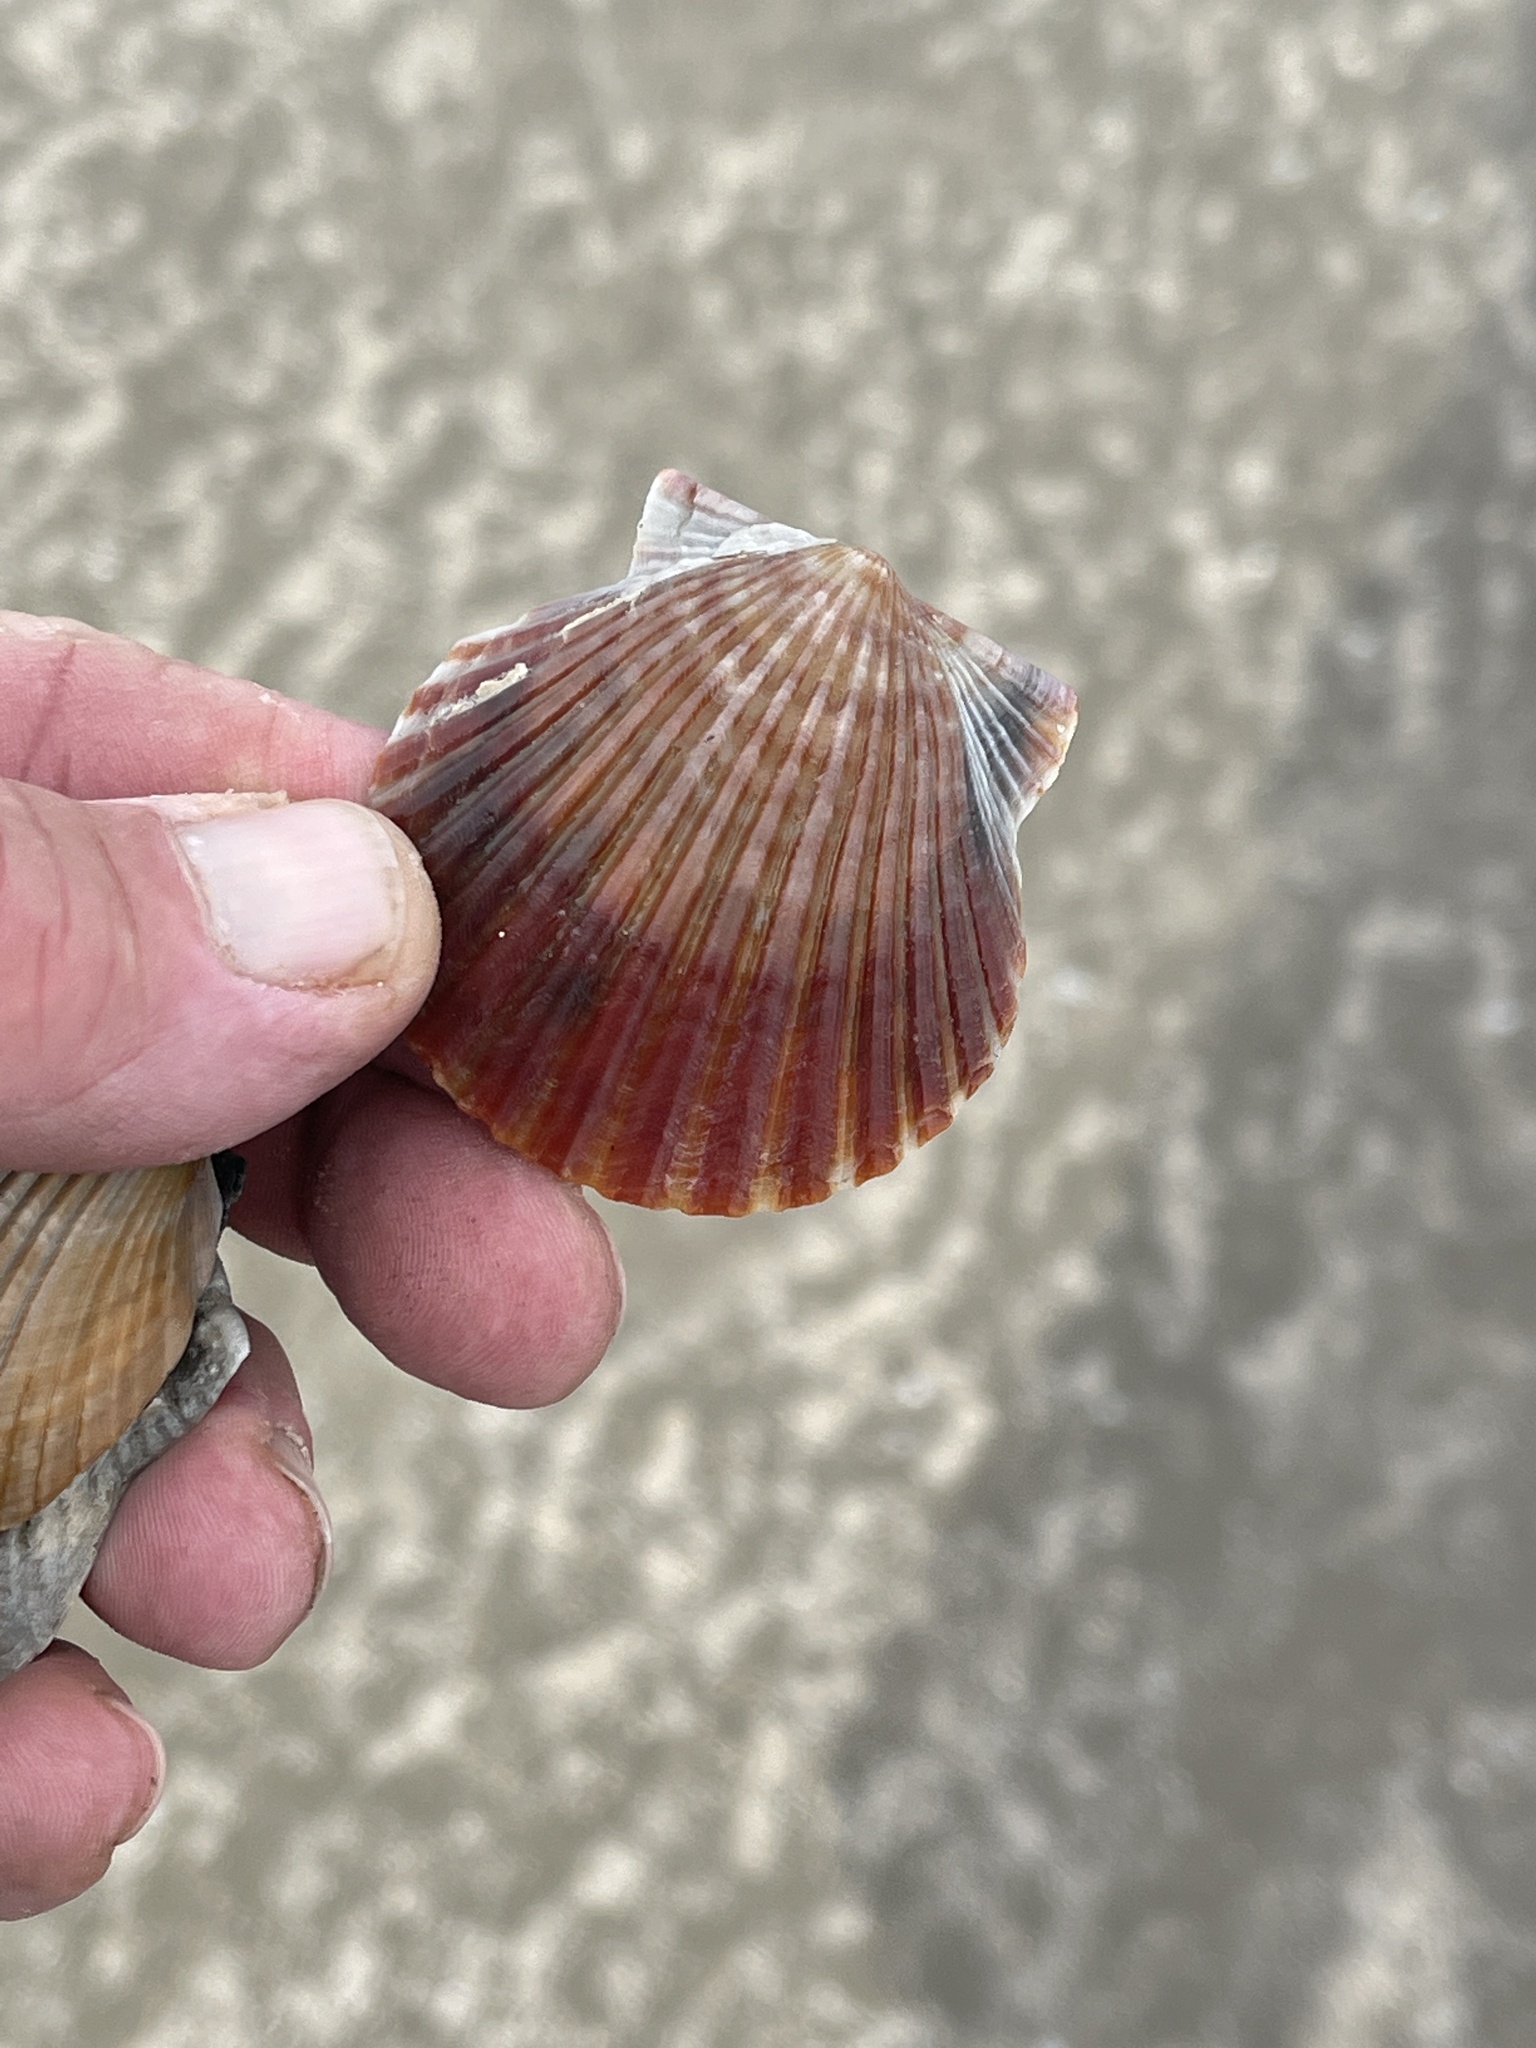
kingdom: Animalia
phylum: Mollusca
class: Bivalvia
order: Pectinida
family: Pectinidae
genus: Argopecten
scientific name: Argopecten irradians
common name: Atlantic bay scallop
